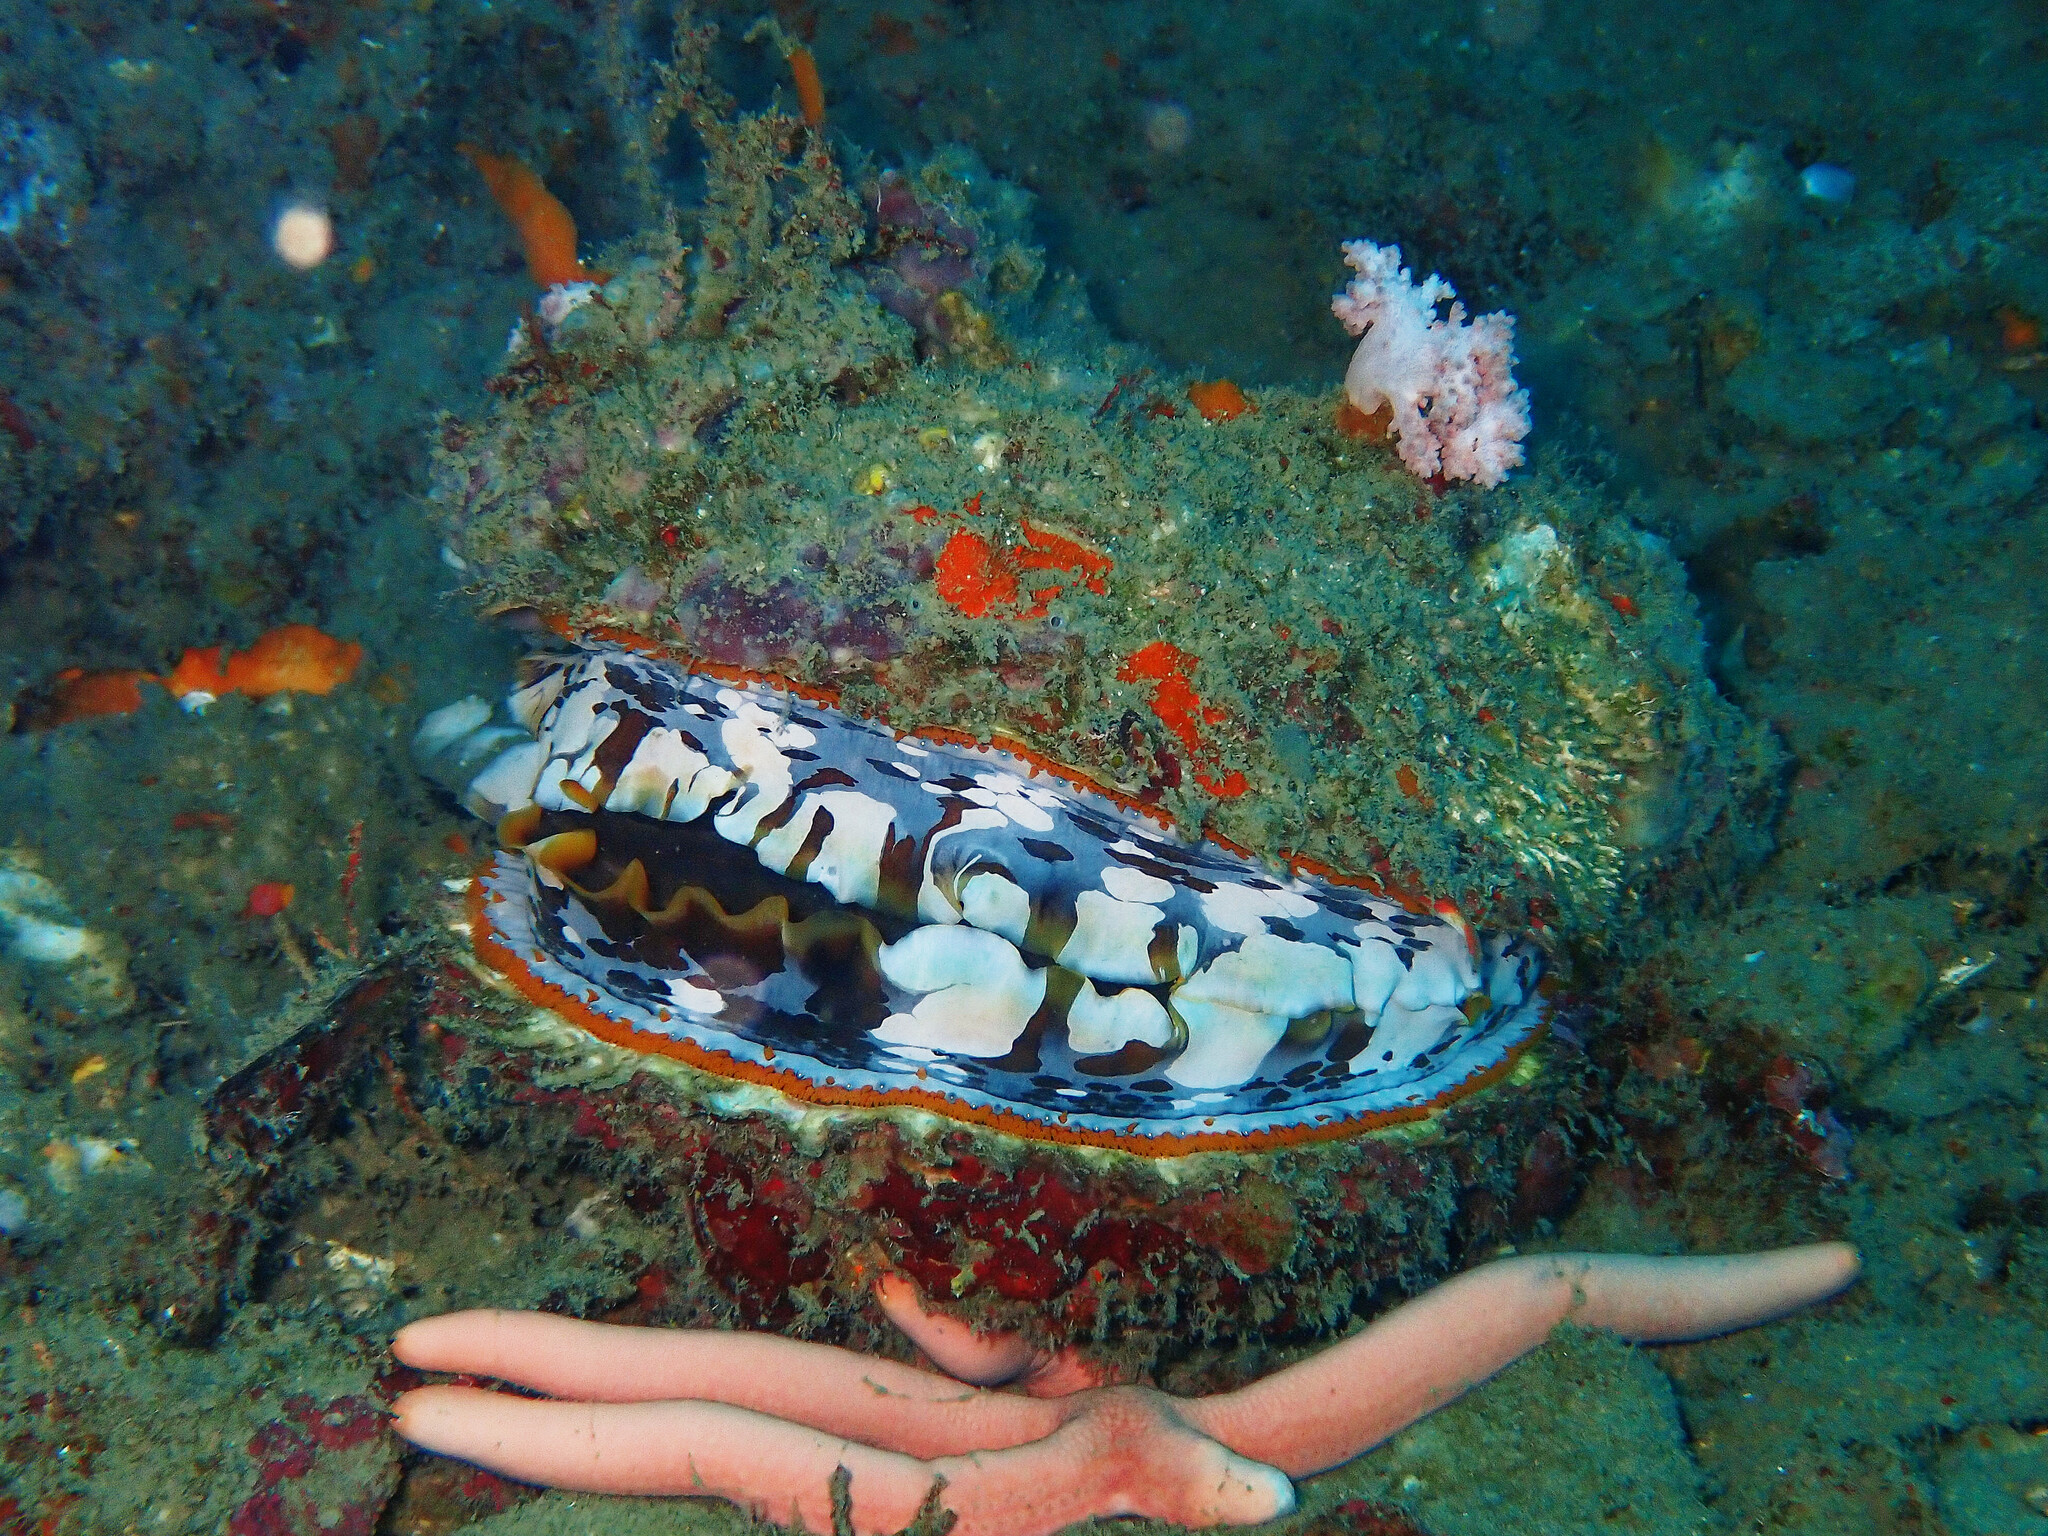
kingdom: Animalia
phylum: Mollusca
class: Bivalvia
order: Pectinida
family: Spondylidae
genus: Spondylus
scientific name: Spondylus varius
